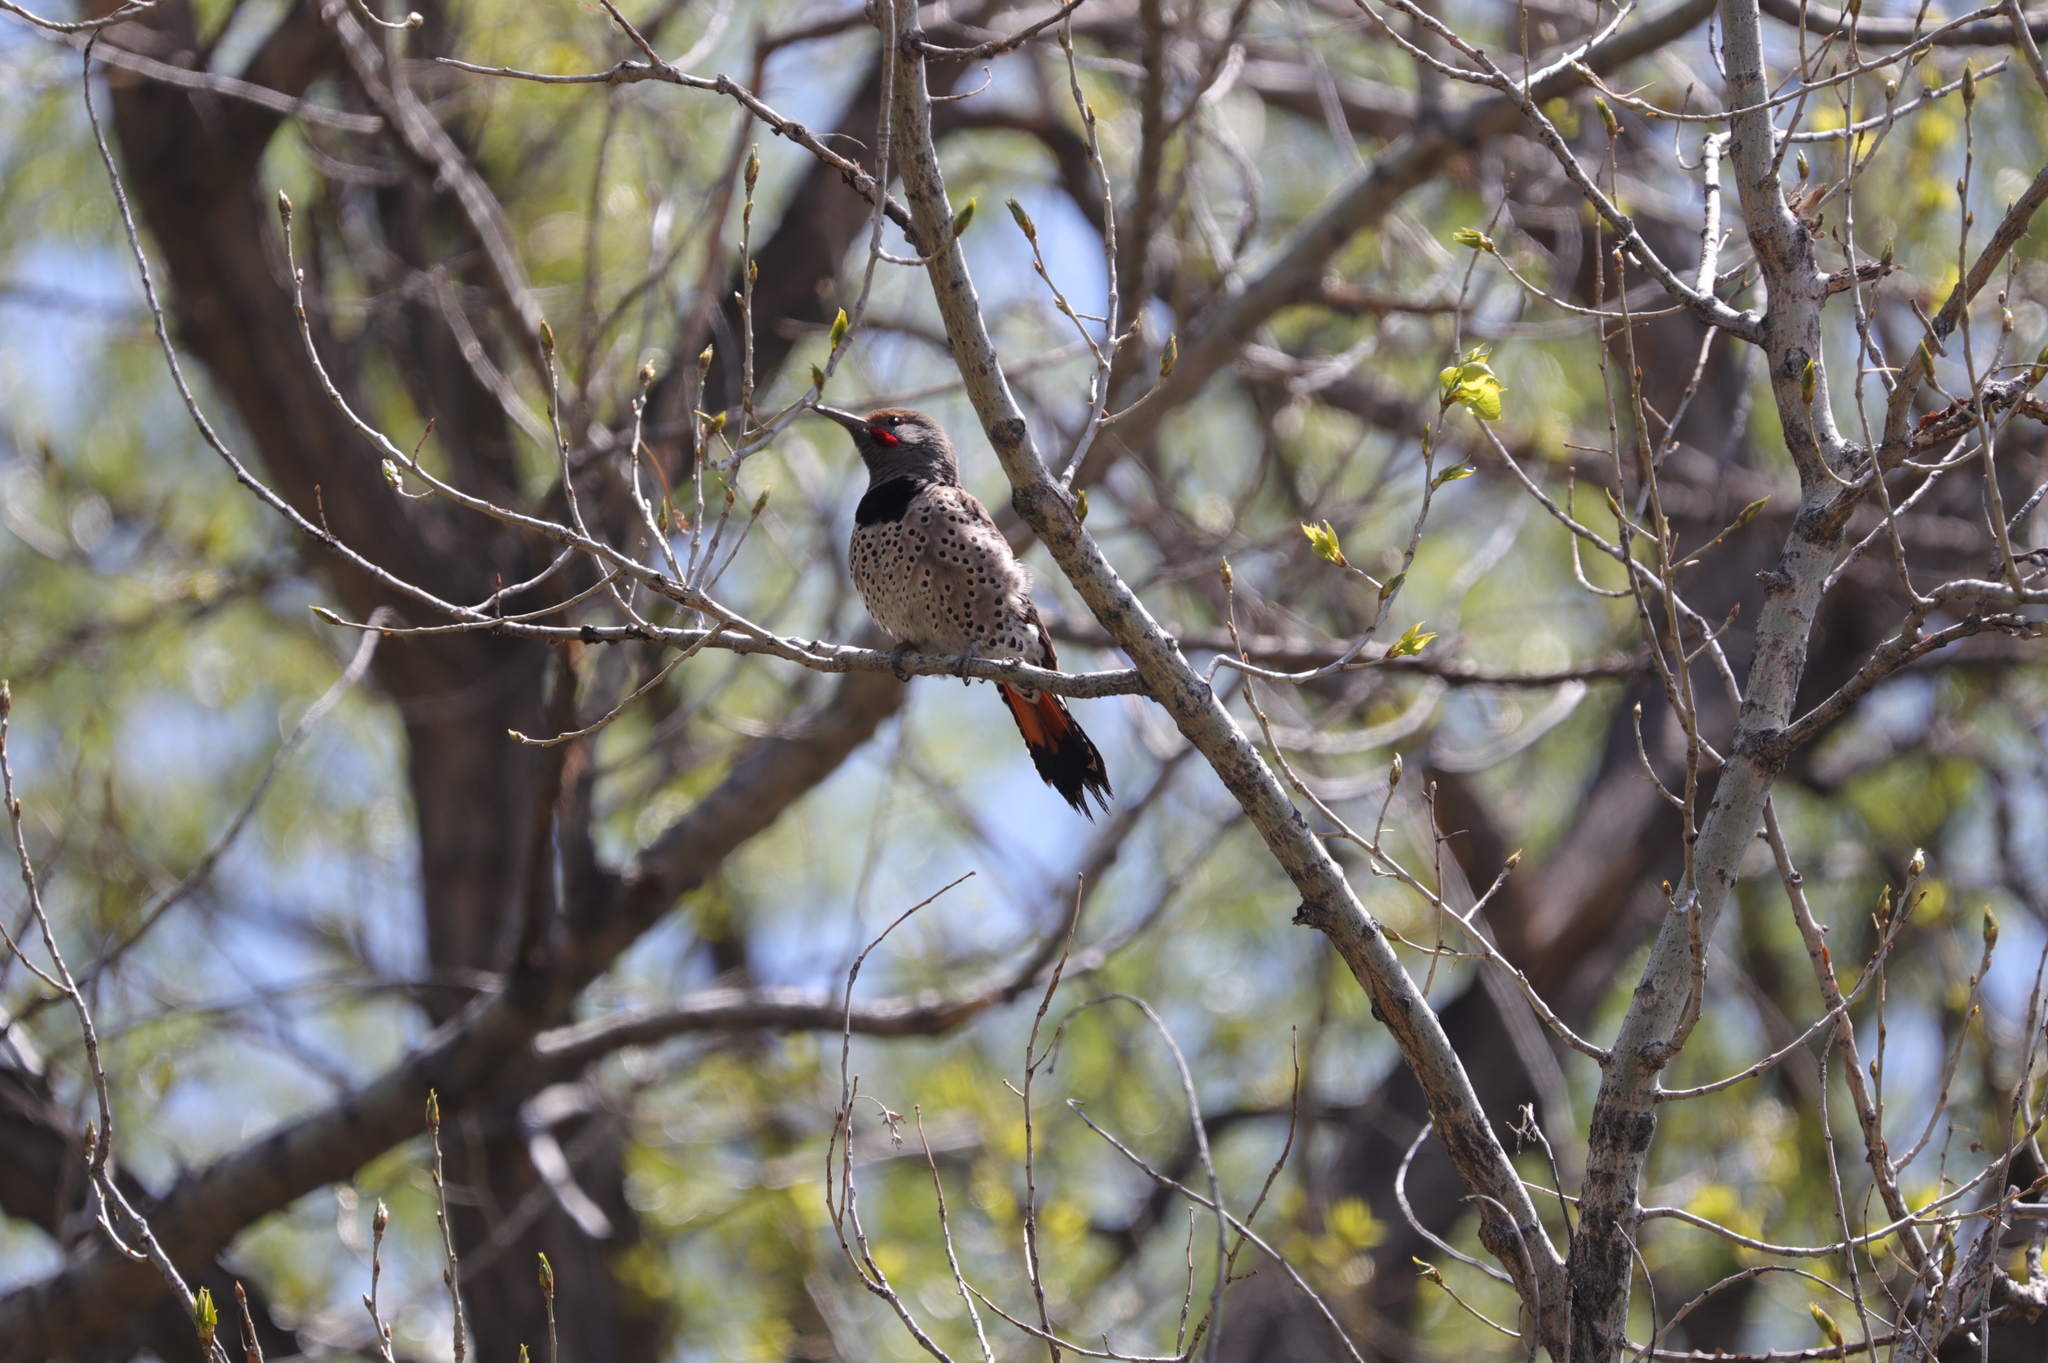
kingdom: Animalia
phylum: Chordata
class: Aves
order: Piciformes
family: Picidae
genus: Colaptes
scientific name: Colaptes auratus
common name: Northern flicker
